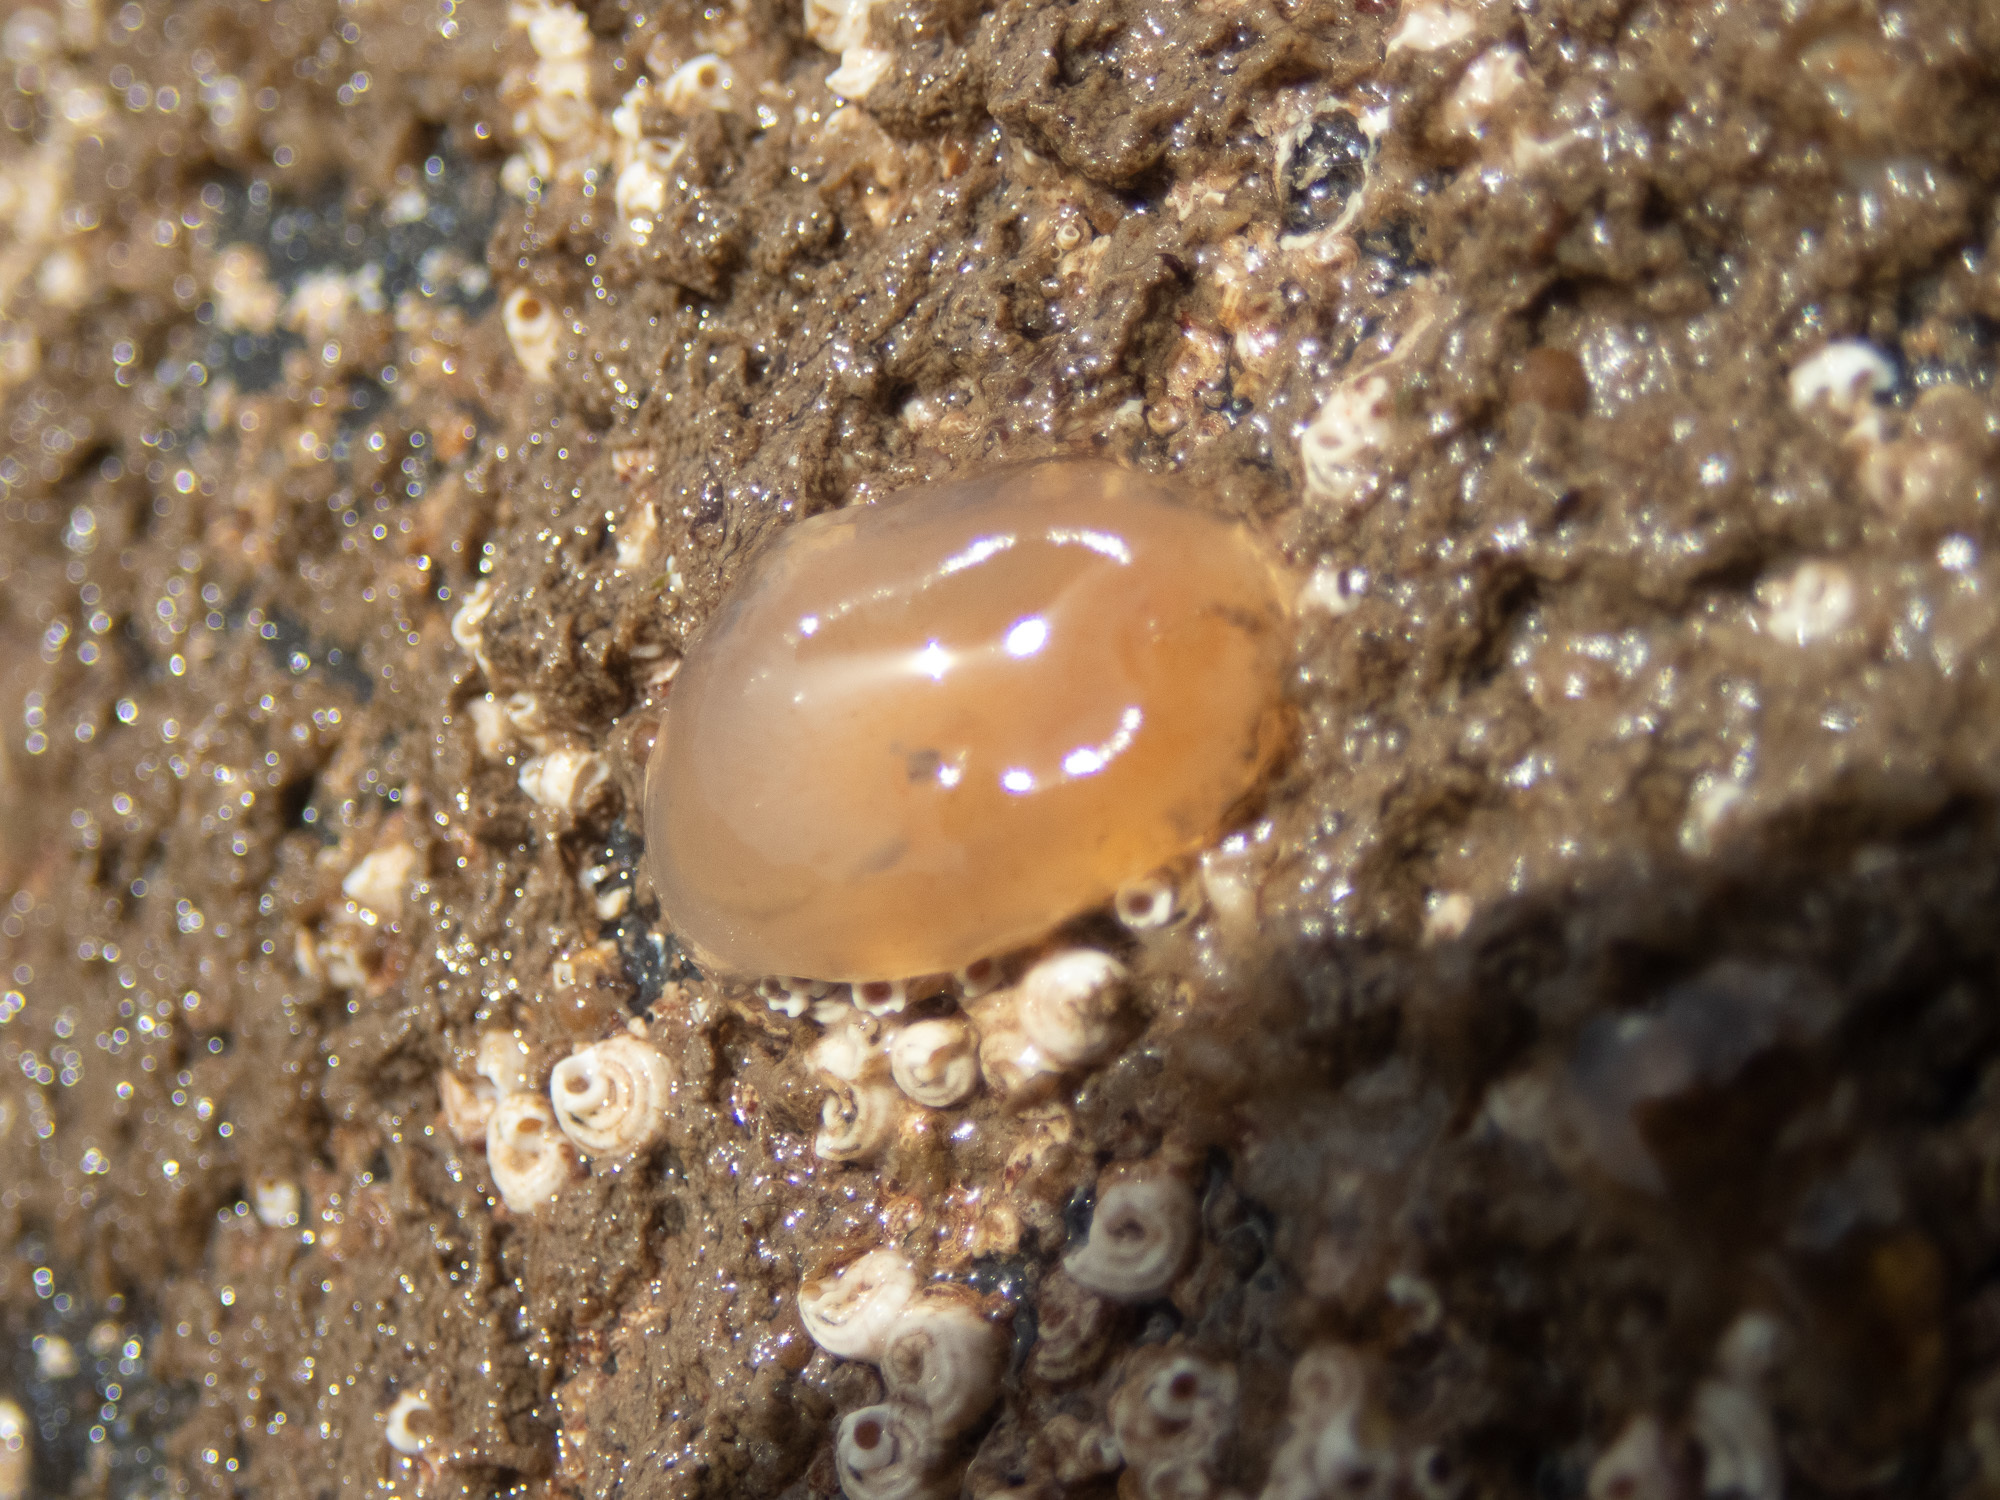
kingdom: Animalia
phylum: Chordata
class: Ascidiacea
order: Phlebobranchia
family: Corellidae
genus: Corella
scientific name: Corella eumyota
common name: Orange-tipped sea squirt
